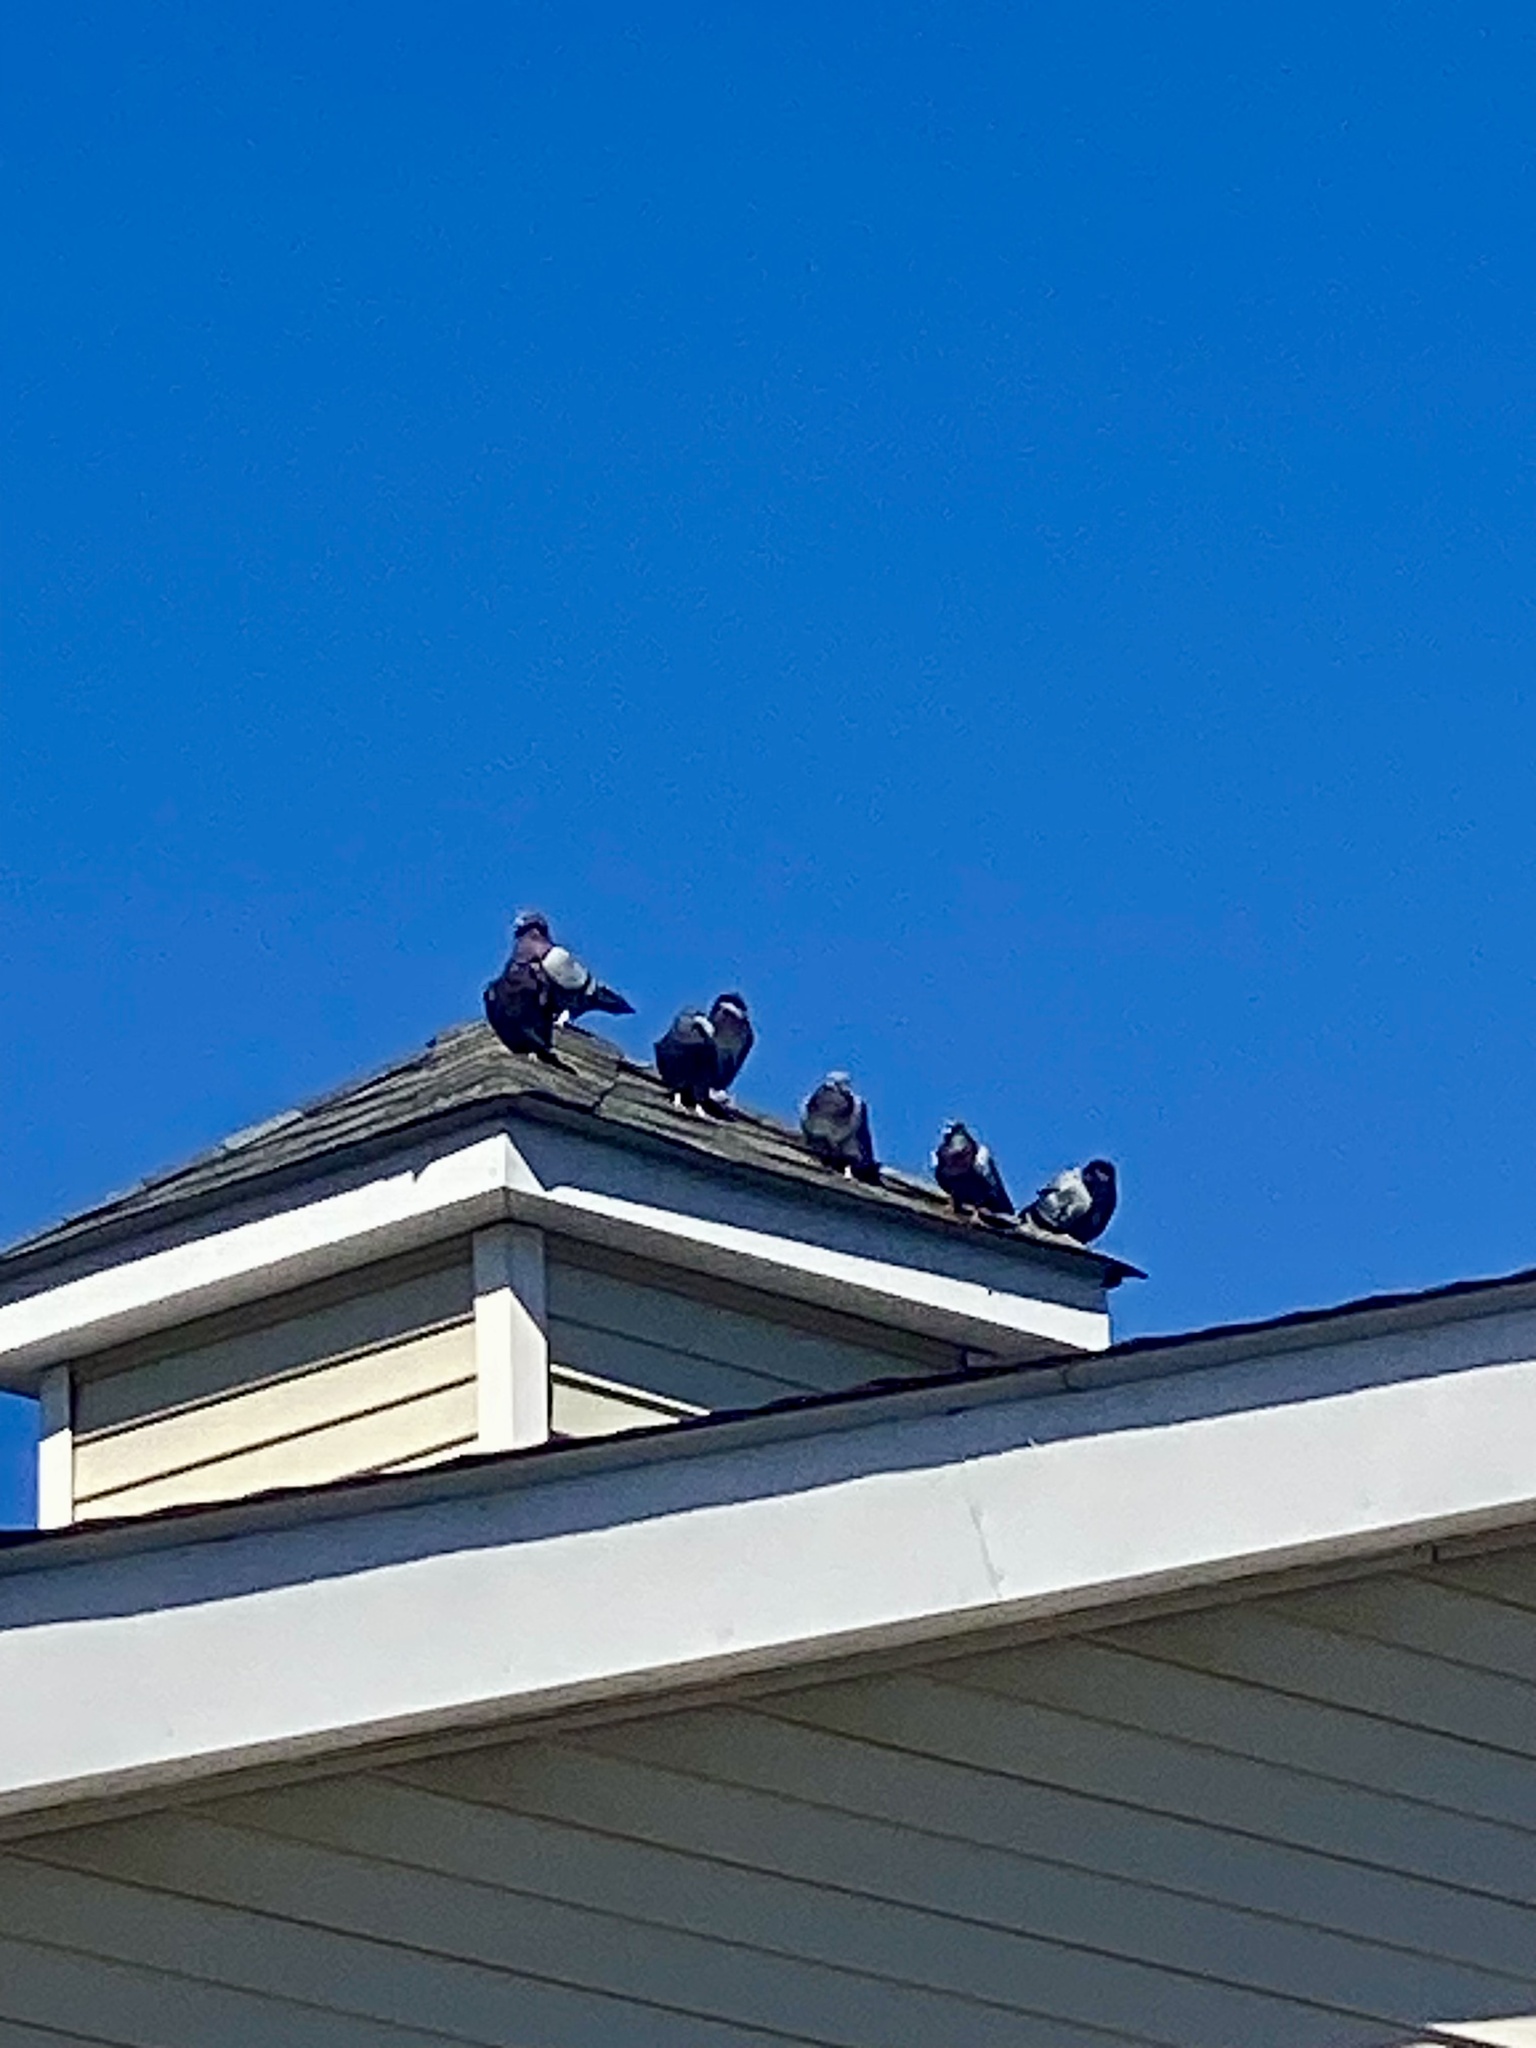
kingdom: Animalia
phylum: Chordata
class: Aves
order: Columbiformes
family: Columbidae
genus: Columba
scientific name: Columba livia
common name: Rock pigeon
